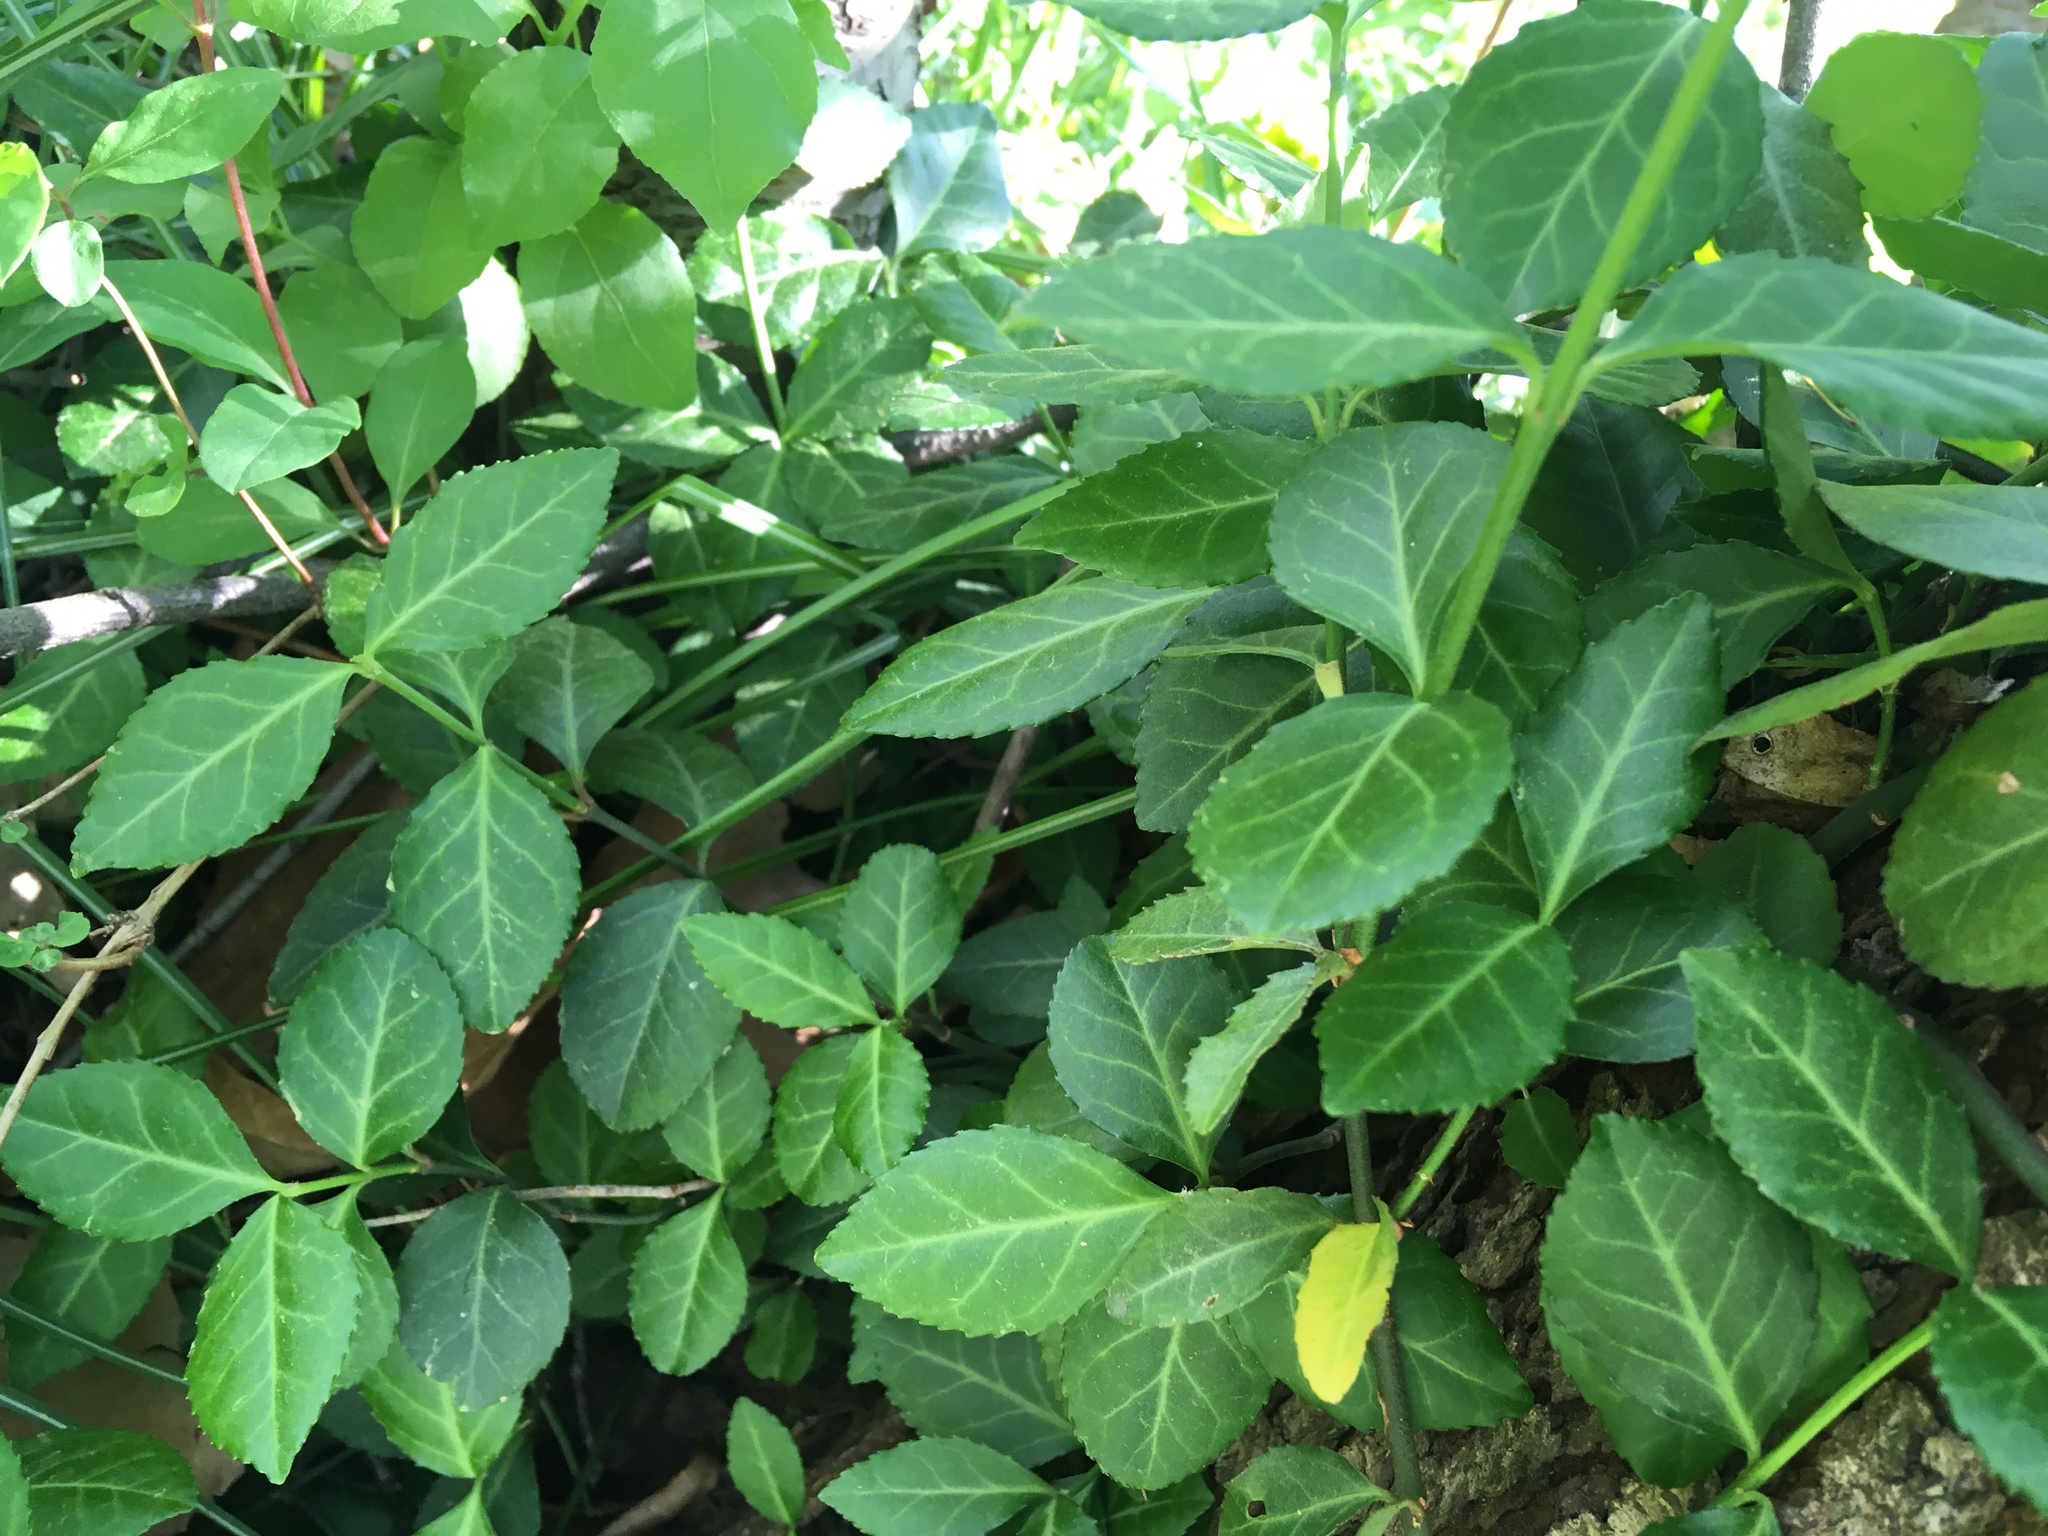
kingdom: Plantae
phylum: Tracheophyta
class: Magnoliopsida
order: Celastrales
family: Celastraceae
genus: Euonymus
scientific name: Euonymus fortunei
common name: Climbing euonymus
